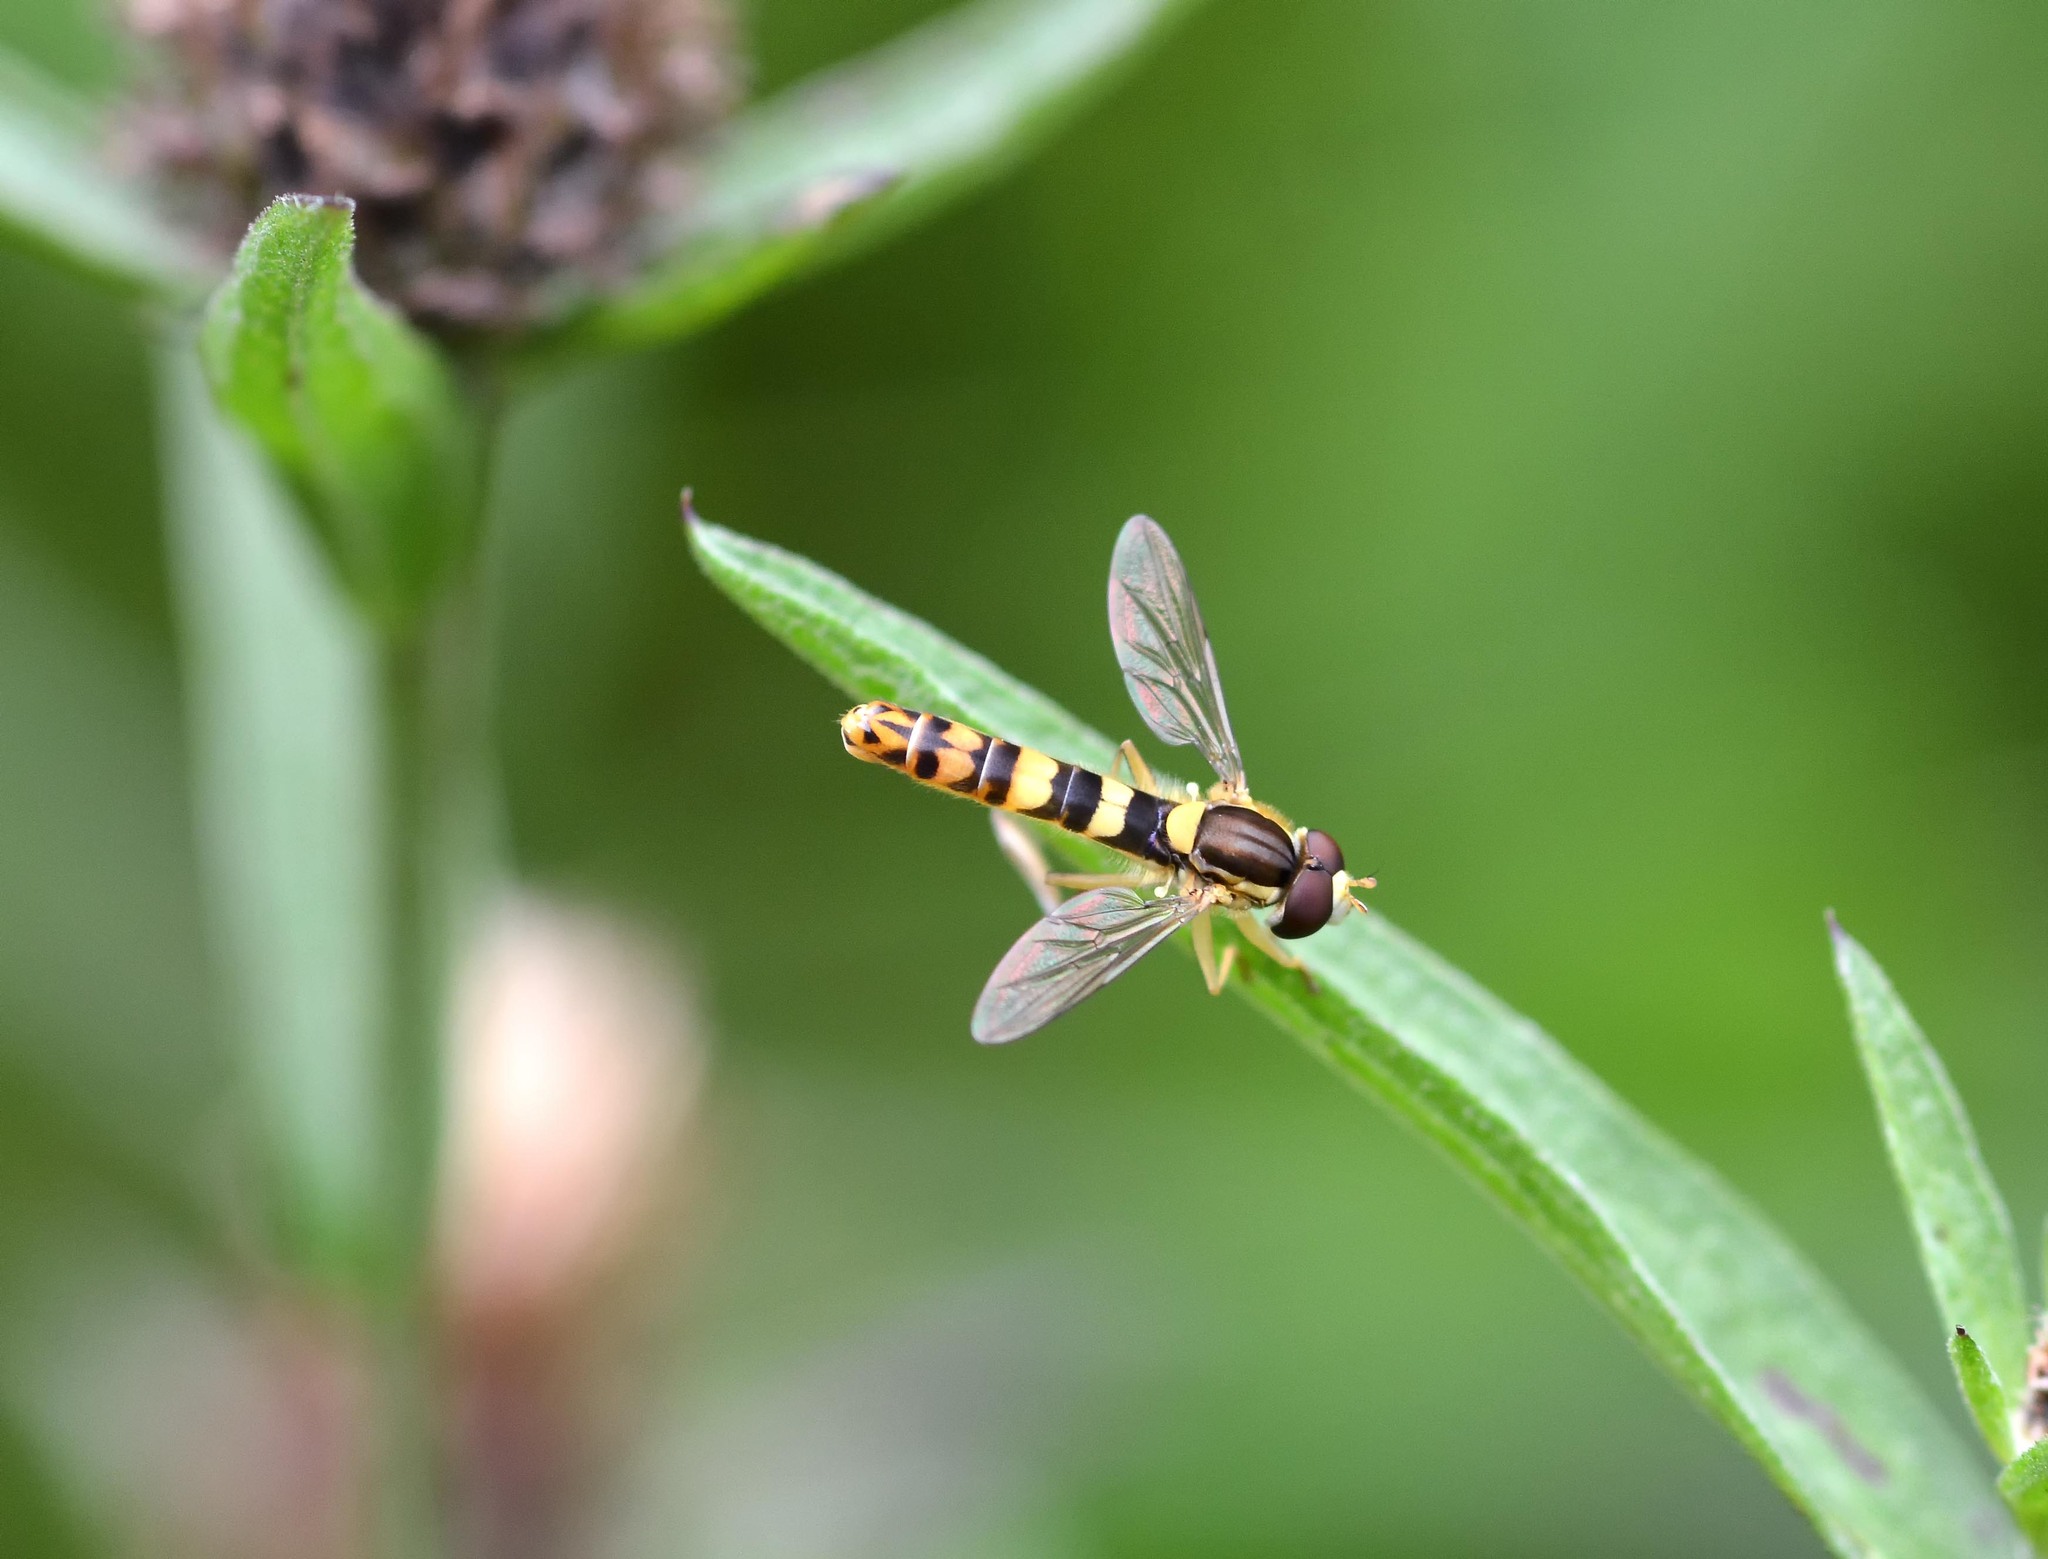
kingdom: Animalia
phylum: Arthropoda
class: Insecta
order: Diptera
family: Syrphidae
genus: Sphaerophoria
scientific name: Sphaerophoria scripta
